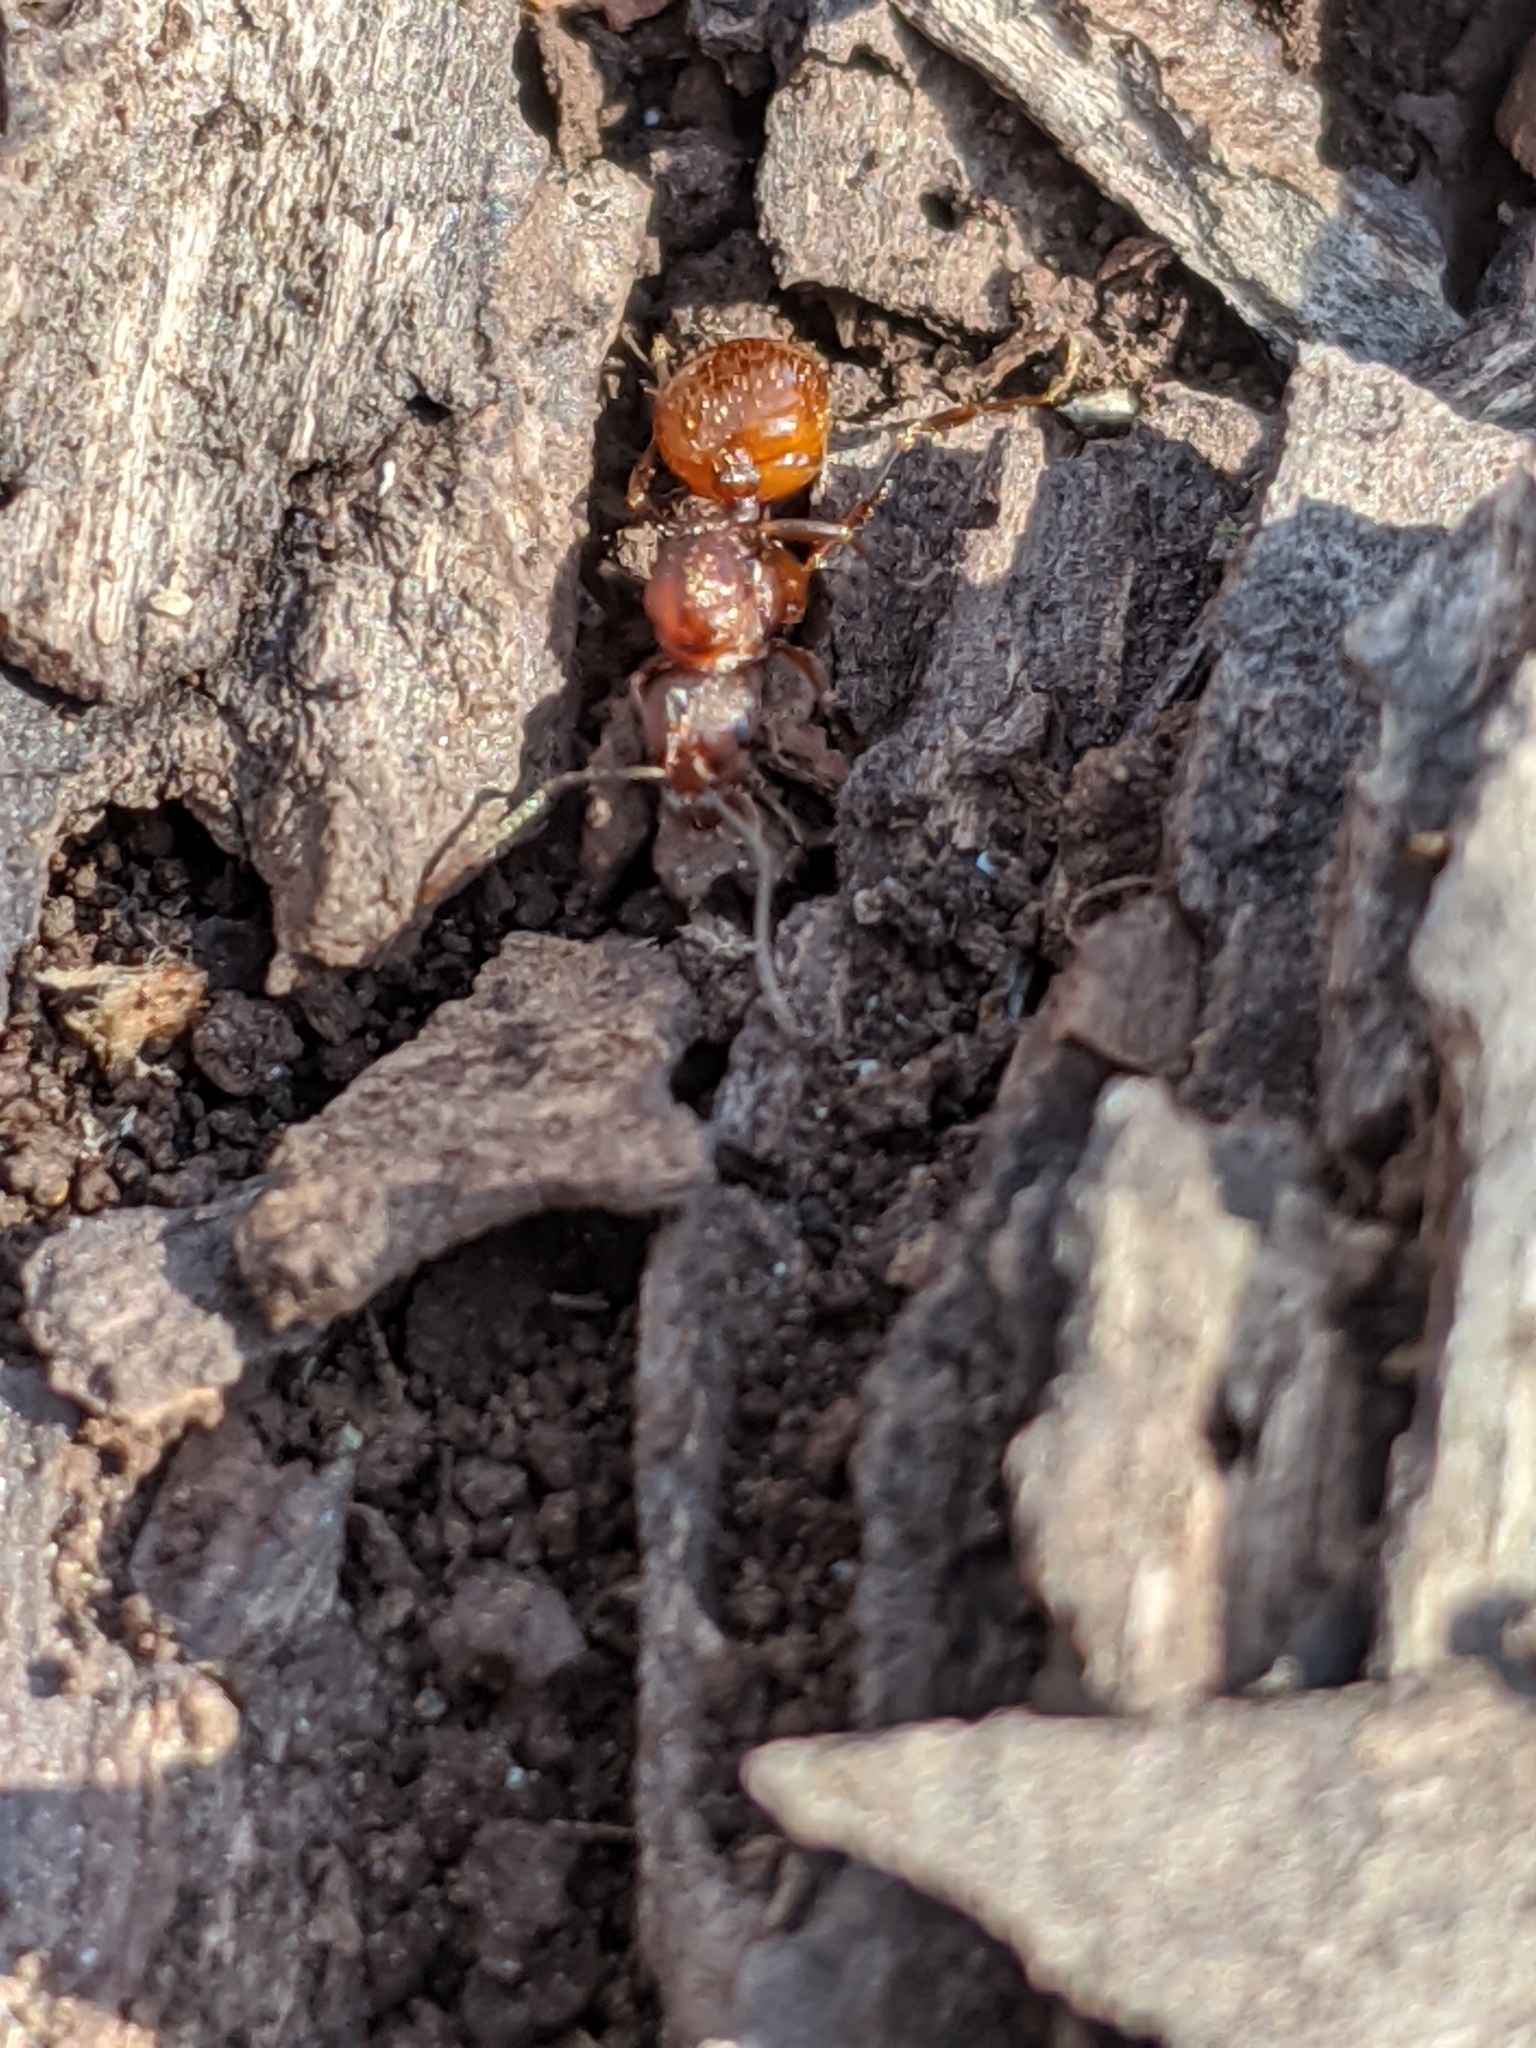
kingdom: Animalia
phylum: Arthropoda
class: Insecta
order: Hymenoptera
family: Formicidae
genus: Aphaenogaster
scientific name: Aphaenogaster fulva
